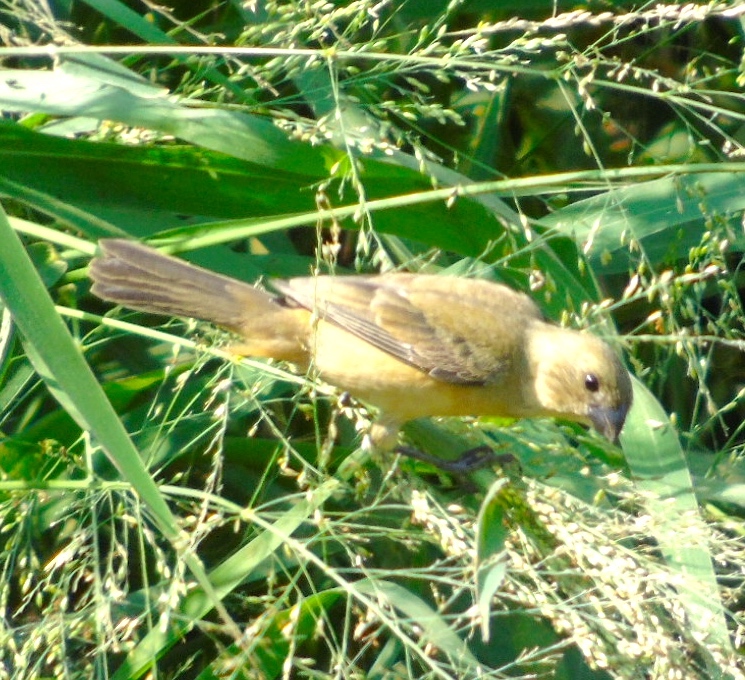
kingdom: Animalia
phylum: Chordata
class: Aves
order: Passeriformes
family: Thraupidae
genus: Sporophila
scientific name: Sporophila torqueola
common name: White-collared seedeater
